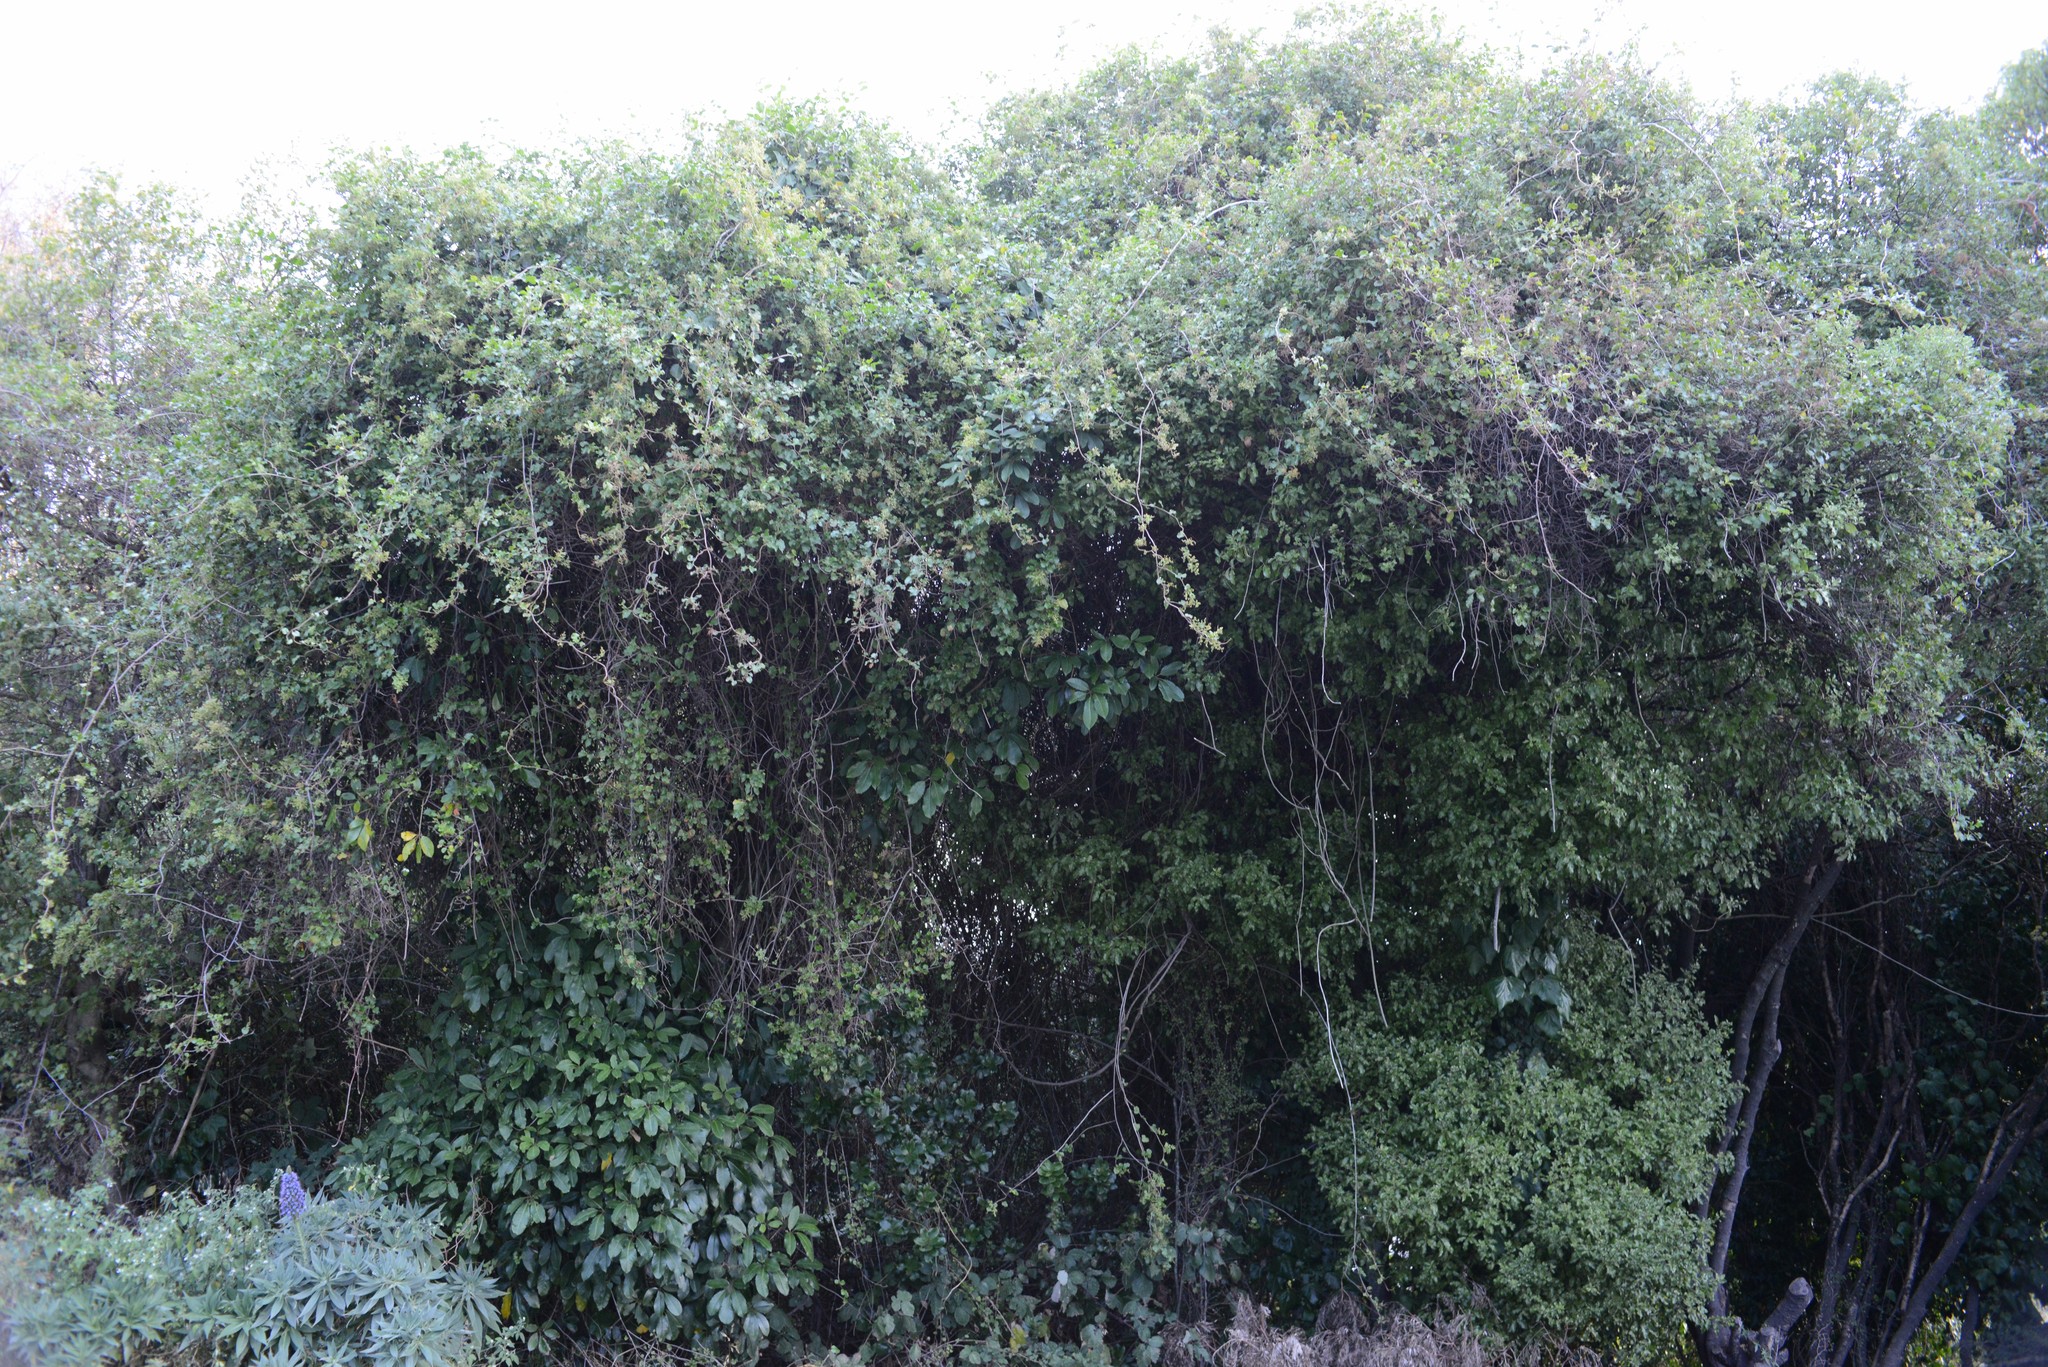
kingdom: Plantae
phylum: Tracheophyta
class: Magnoliopsida
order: Caryophyllales
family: Polygonaceae
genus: Muehlenbeckia
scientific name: Muehlenbeckia australis
